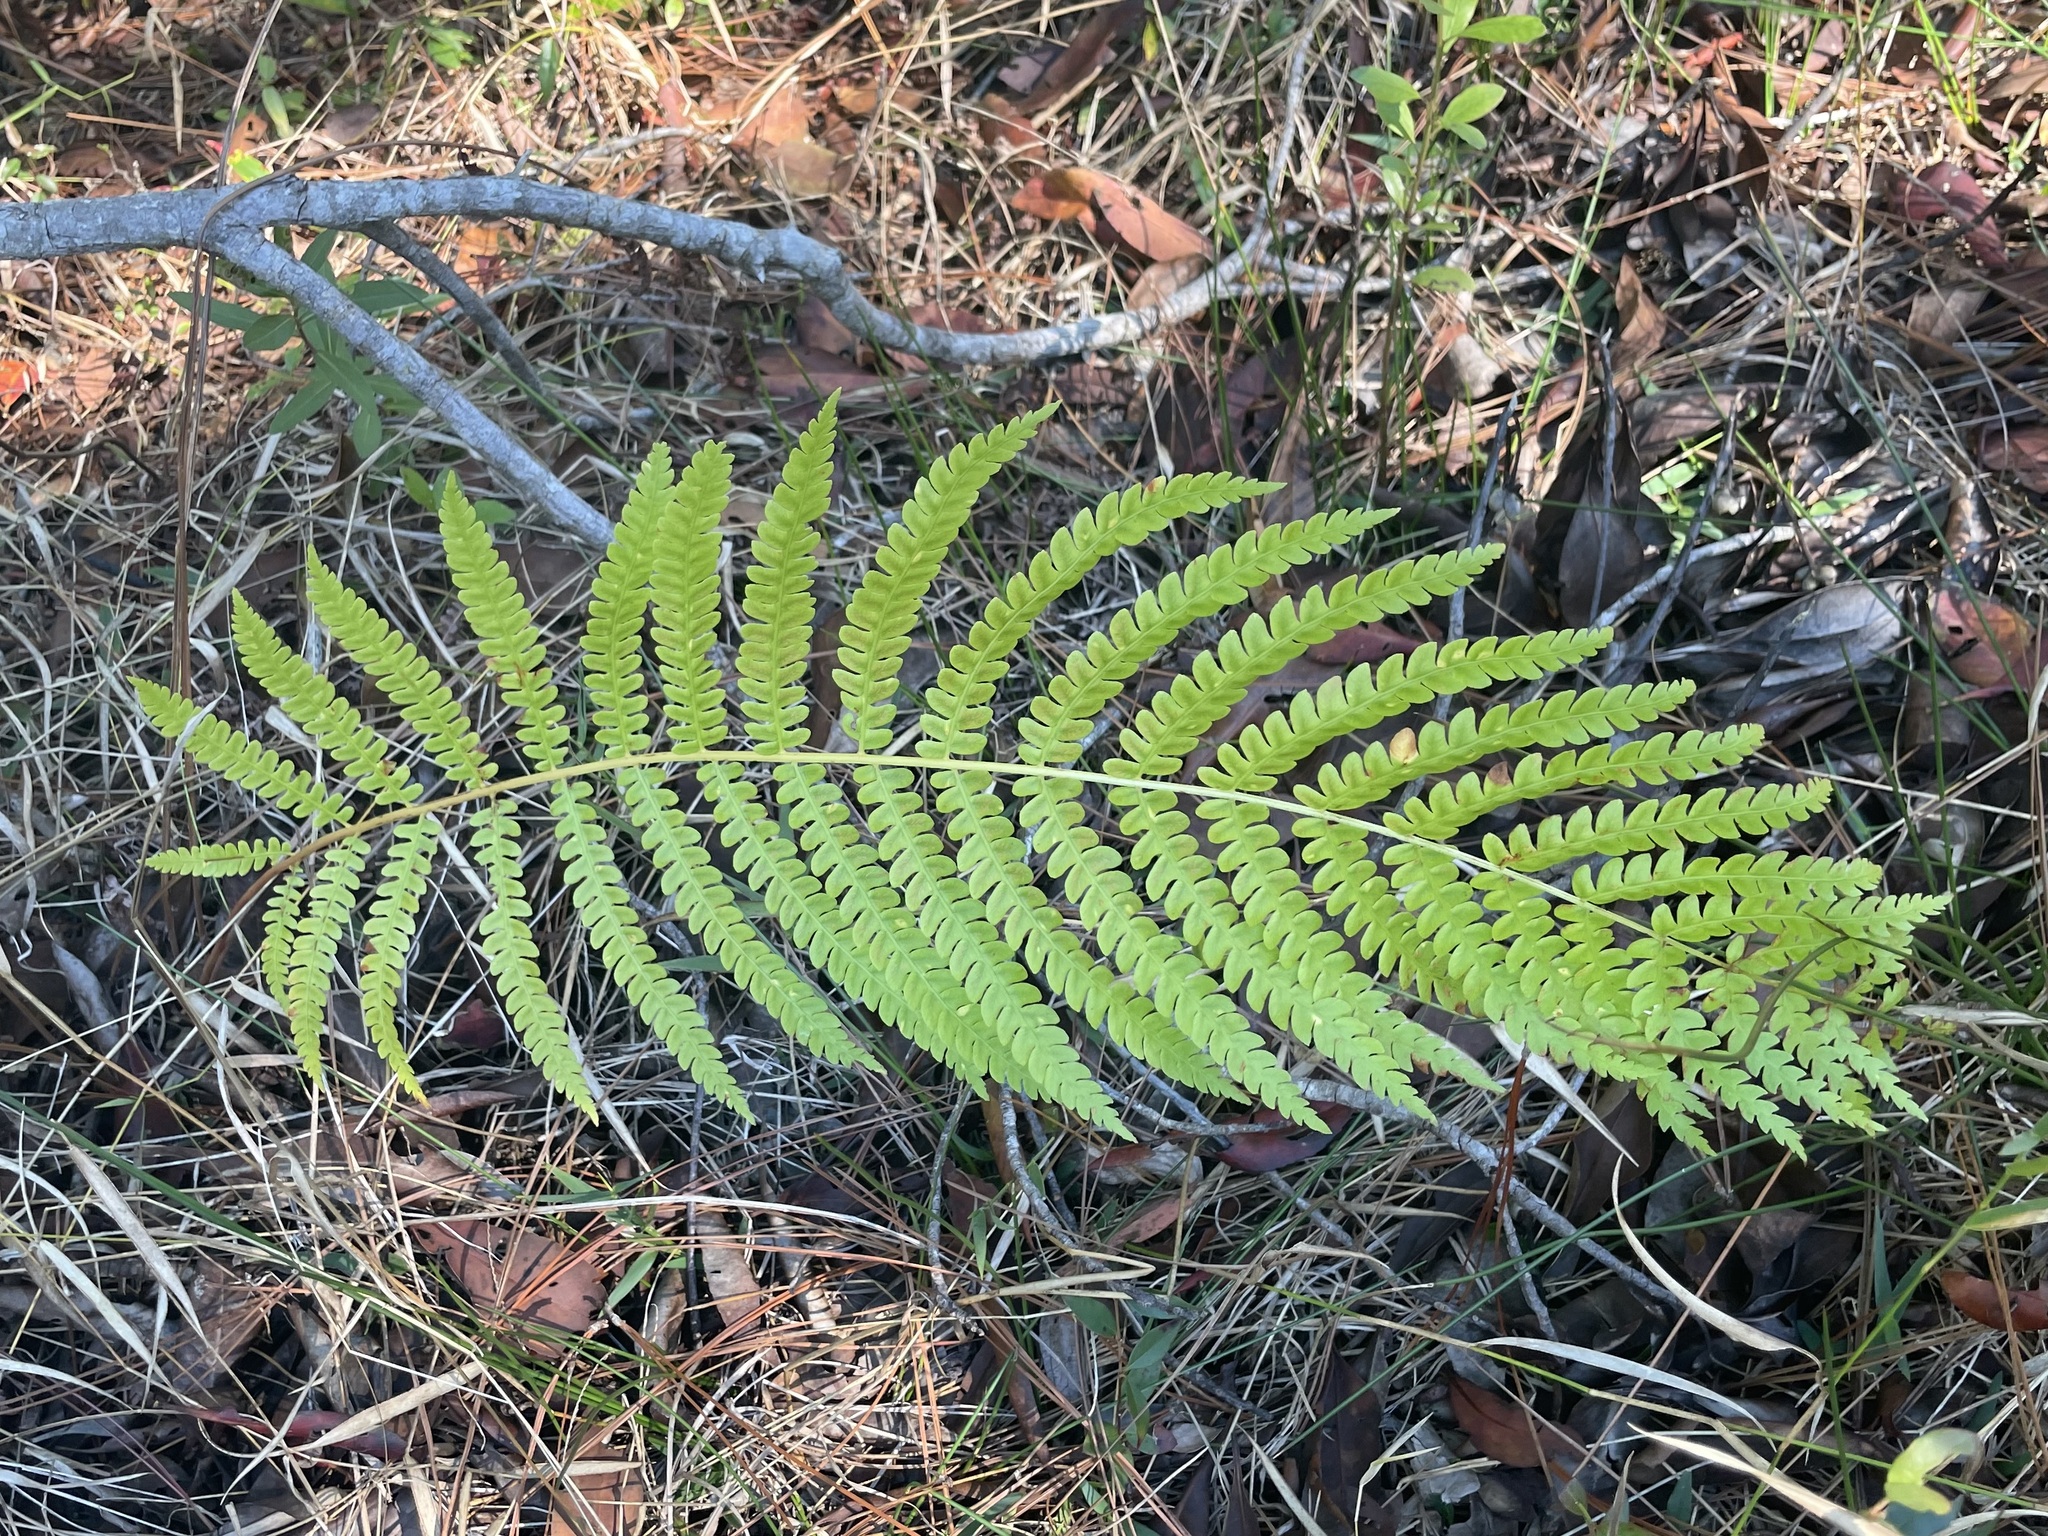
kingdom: Plantae
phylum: Tracheophyta
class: Polypodiopsida
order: Osmundales
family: Osmundaceae
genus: Osmundastrum
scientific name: Osmundastrum cinnamomeum
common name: Cinnamon fern
